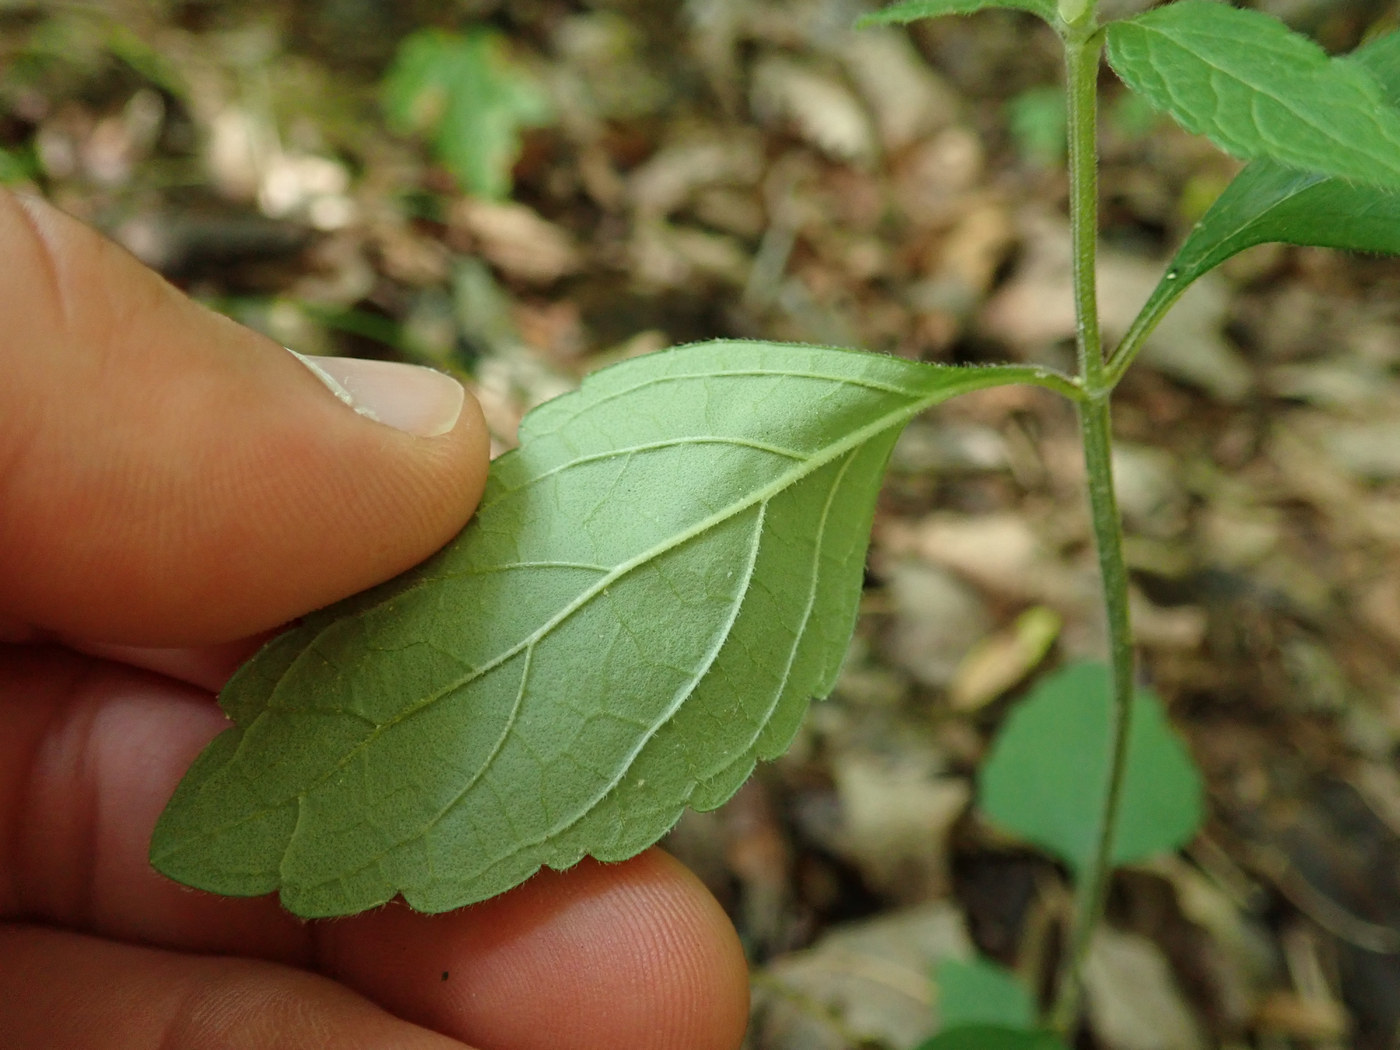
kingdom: Plantae
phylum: Tracheophyta
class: Magnoliopsida
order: Lamiales
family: Lamiaceae
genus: Scutellaria
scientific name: Scutellaria elliptica
